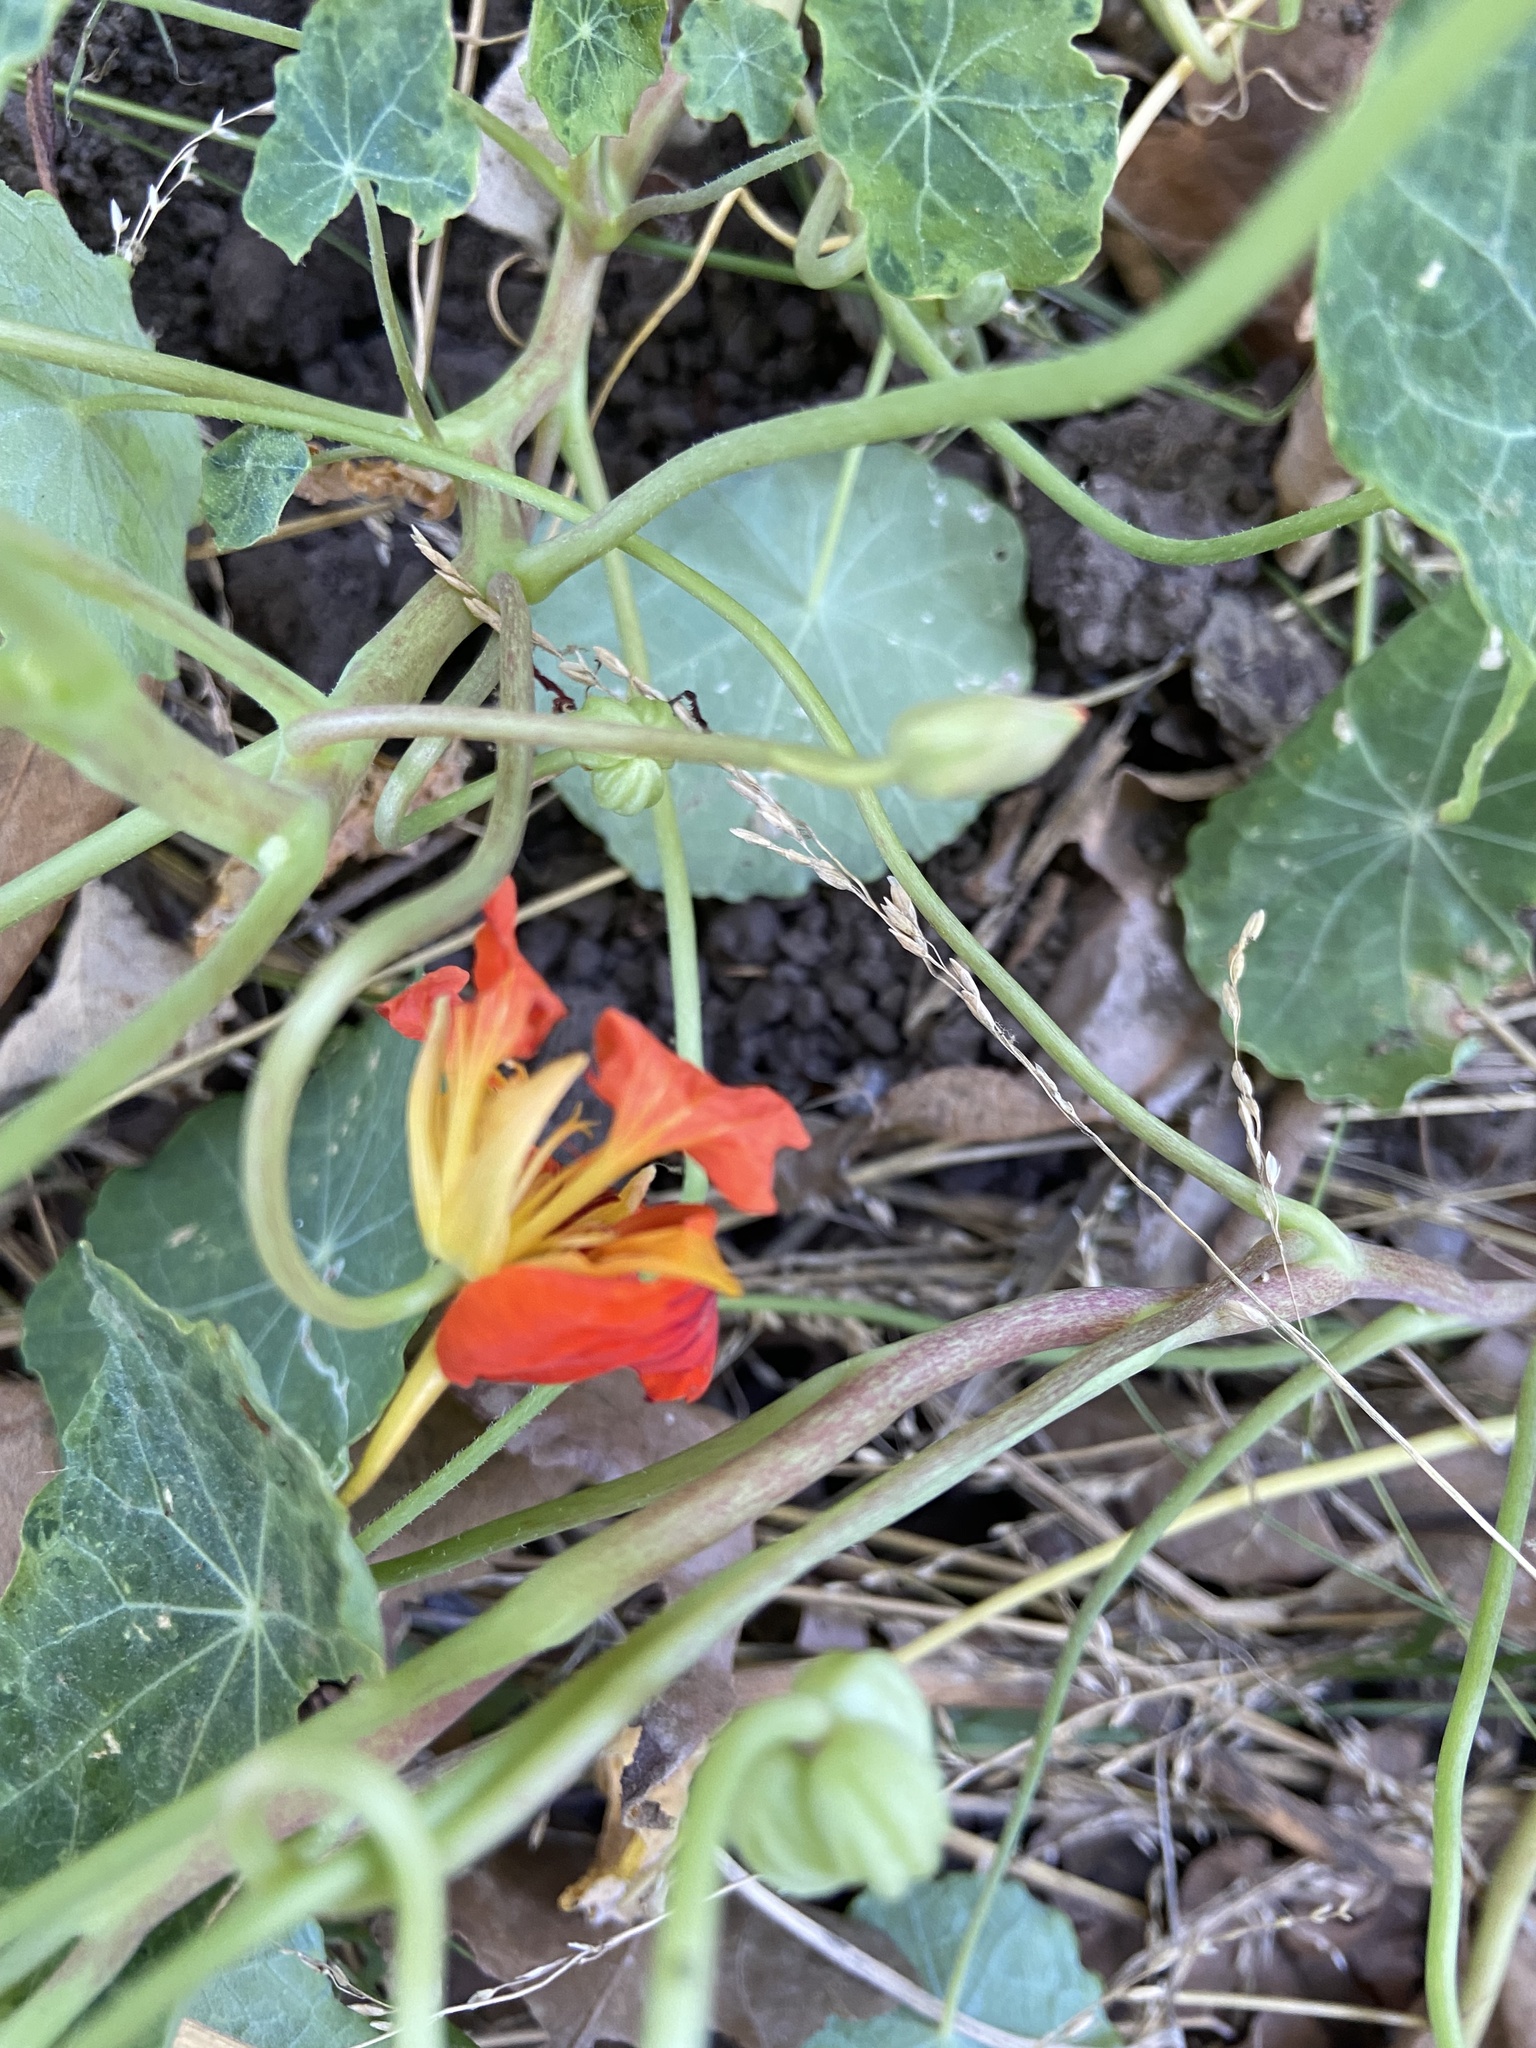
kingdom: Plantae
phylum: Tracheophyta
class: Magnoliopsida
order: Brassicales
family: Tropaeolaceae
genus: Tropaeolum
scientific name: Tropaeolum majus
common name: Nasturtium
